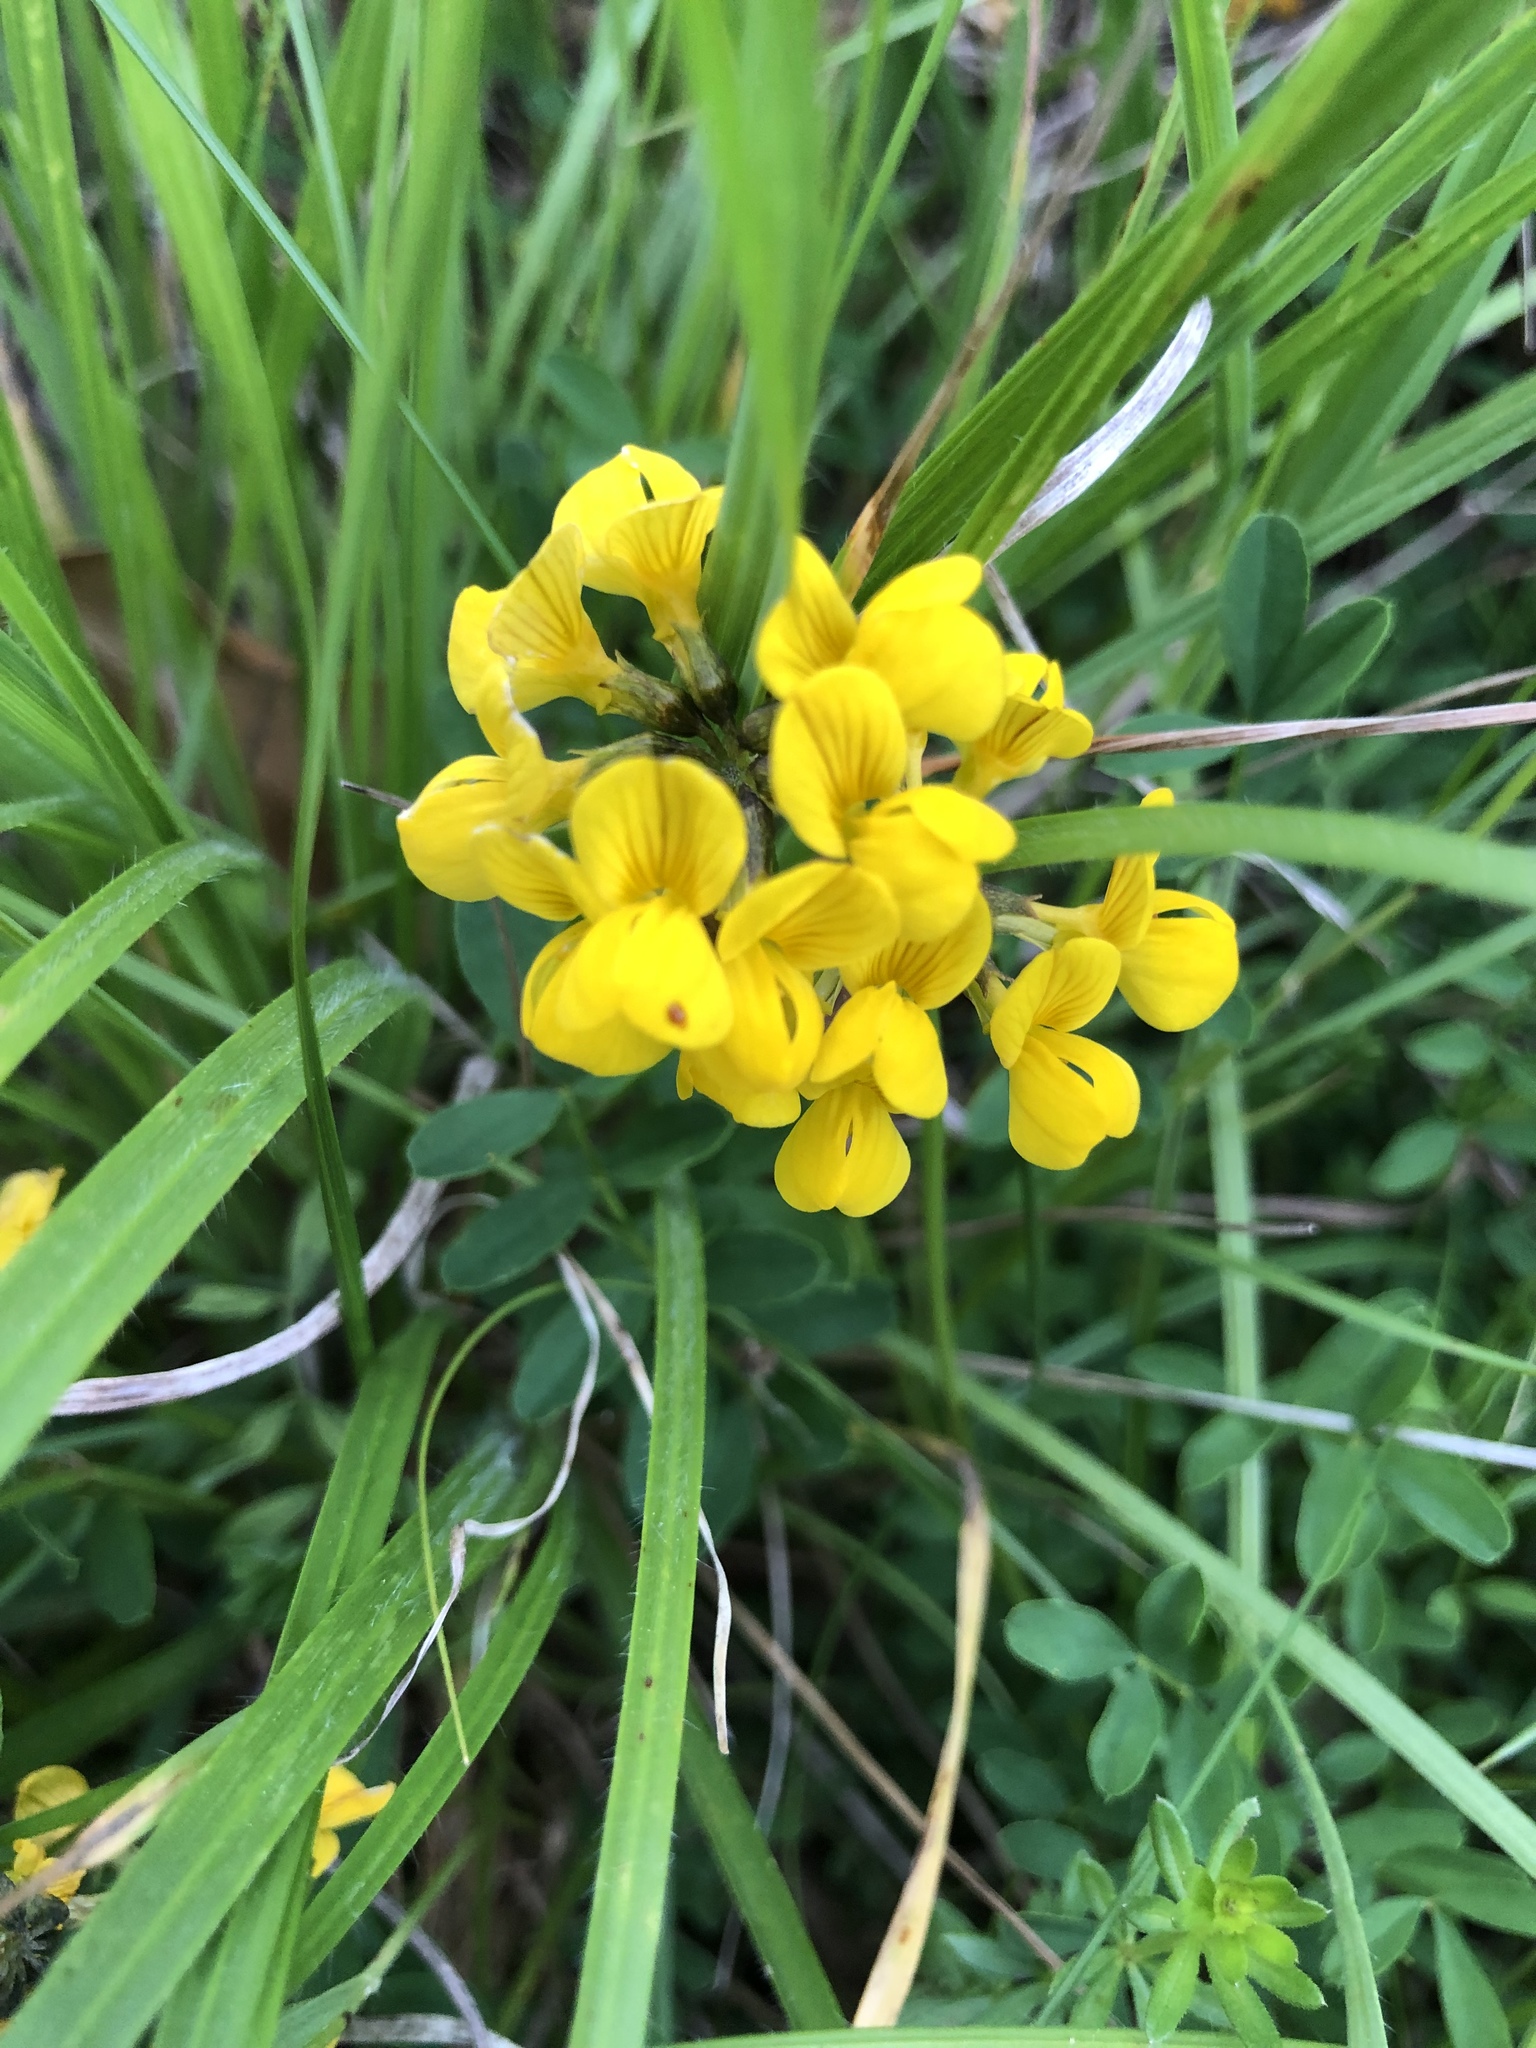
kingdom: Plantae
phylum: Tracheophyta
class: Magnoliopsida
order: Fabales
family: Fabaceae
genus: Hippocrepis
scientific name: Hippocrepis comosa
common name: Horseshoe vetch
